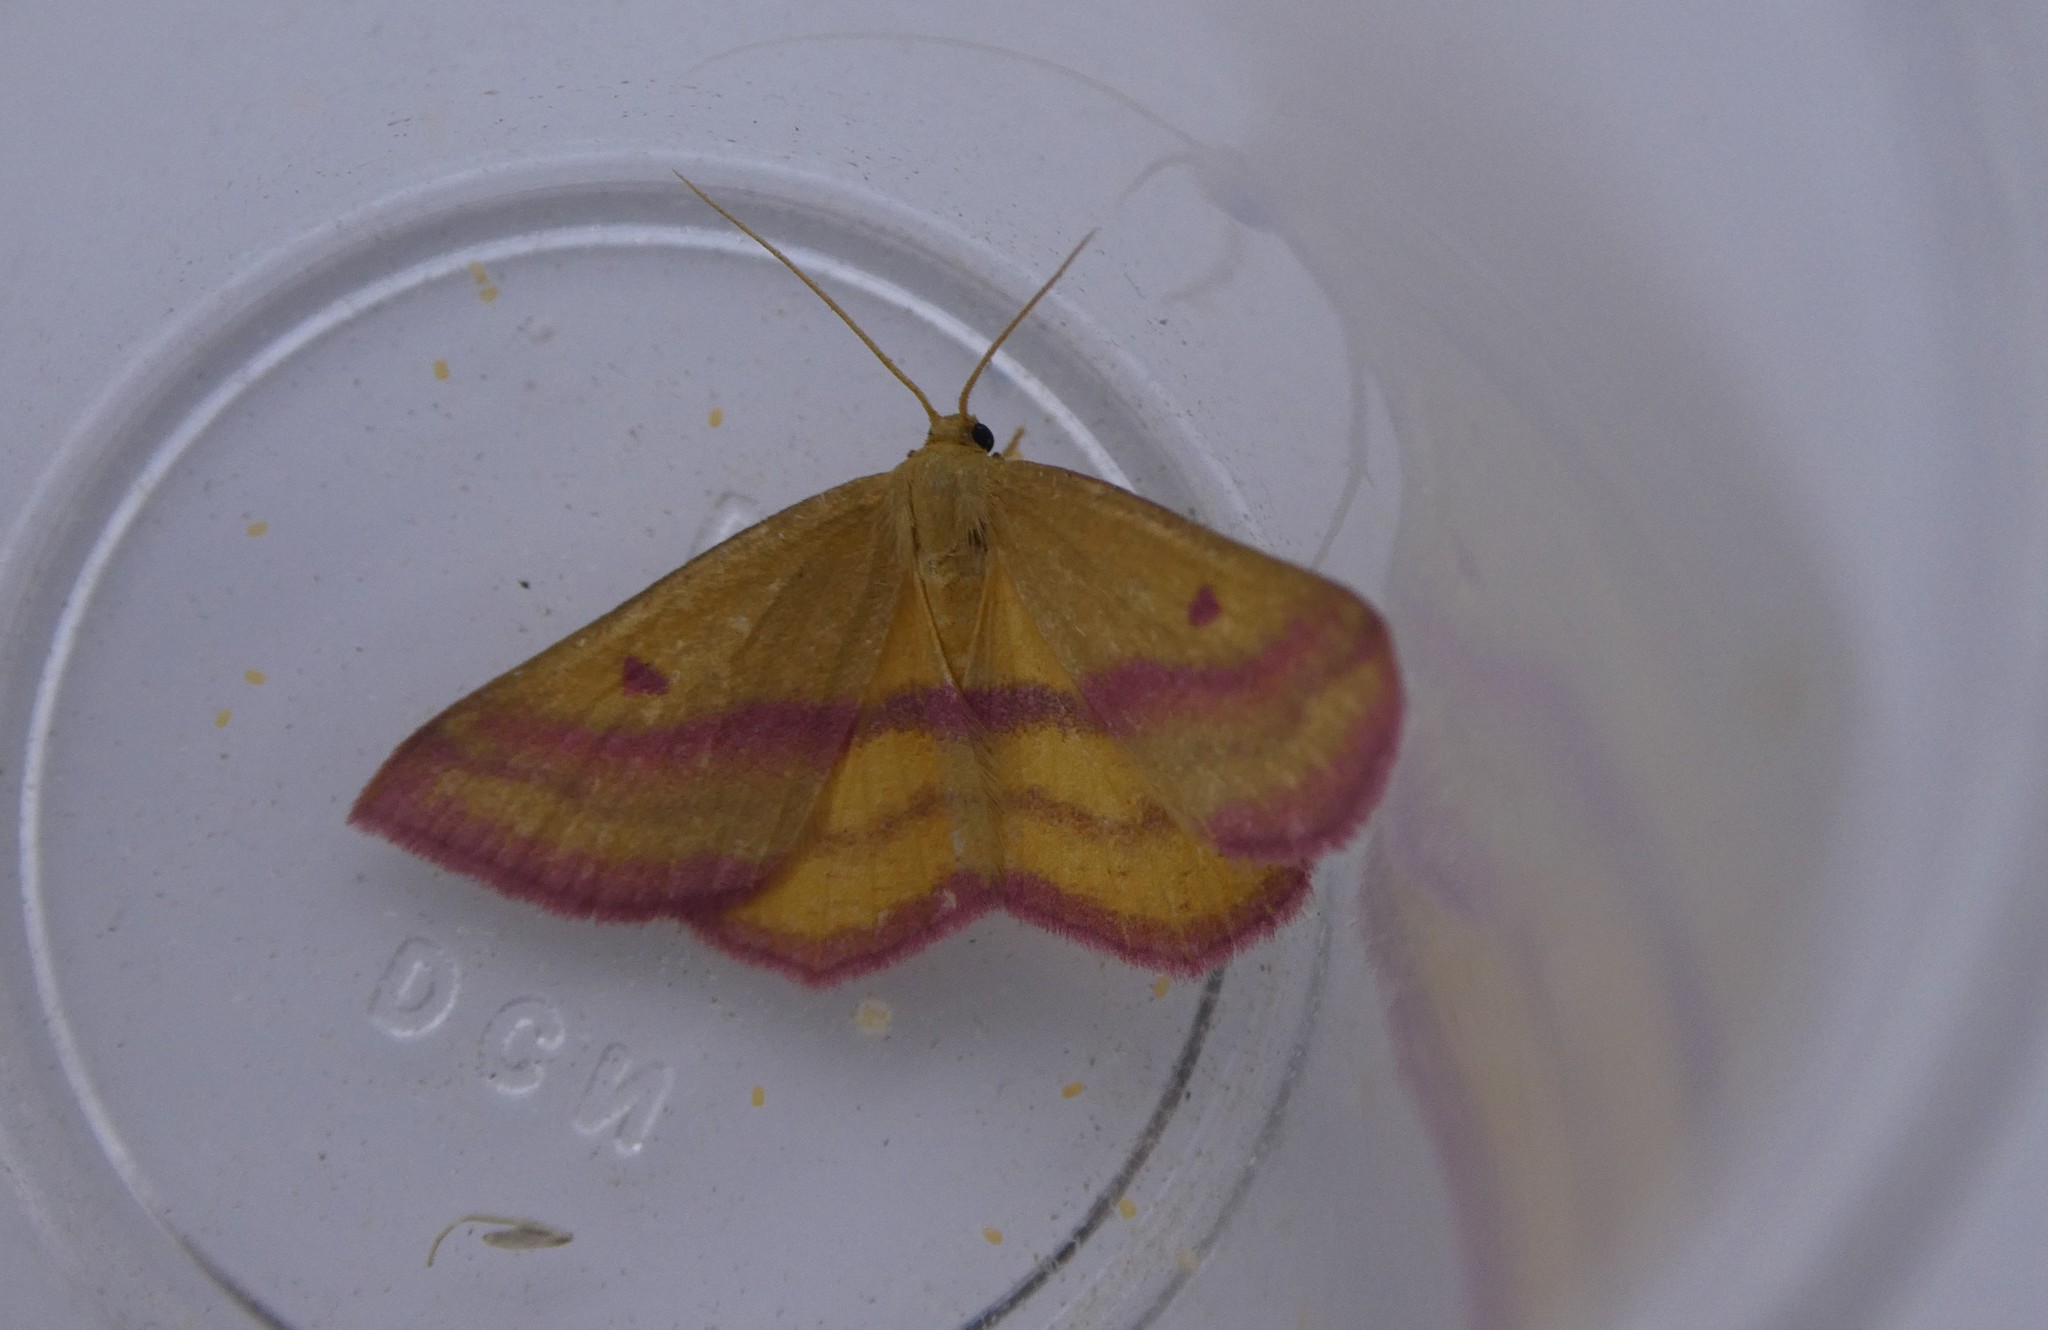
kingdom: Animalia
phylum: Arthropoda
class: Insecta
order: Lepidoptera
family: Geometridae
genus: Haematopis
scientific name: Haematopis grataria
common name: Chickweed geometer
